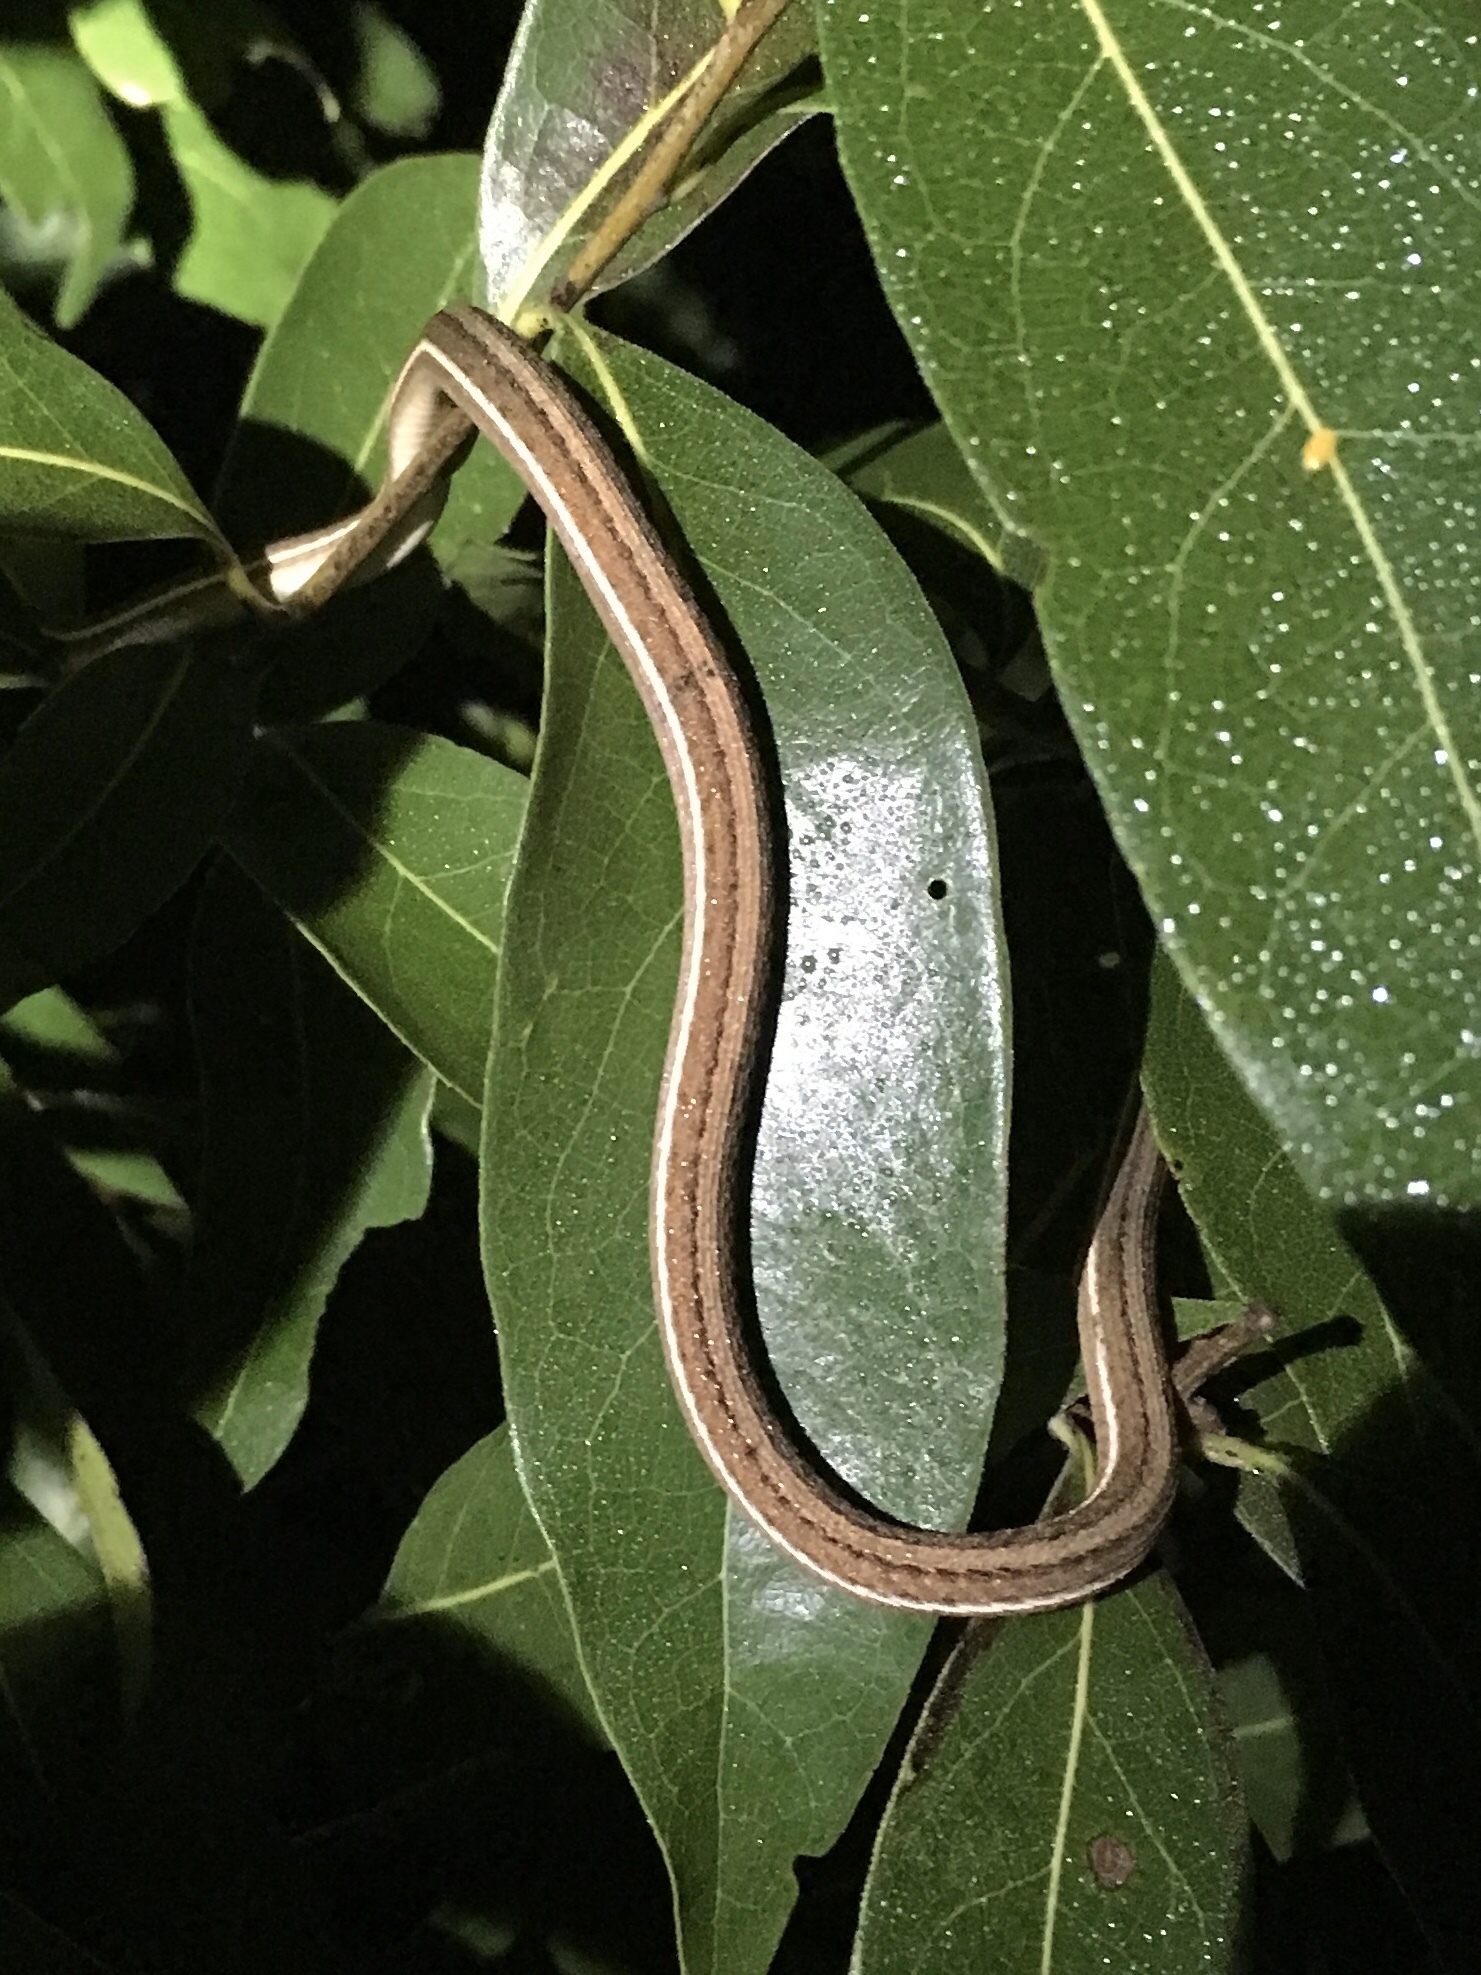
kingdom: Animalia
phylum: Chordata
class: Squamata
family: Colubridae
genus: Thamnophis
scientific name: Thamnophis saurita
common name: Eastern ribbonsnake
